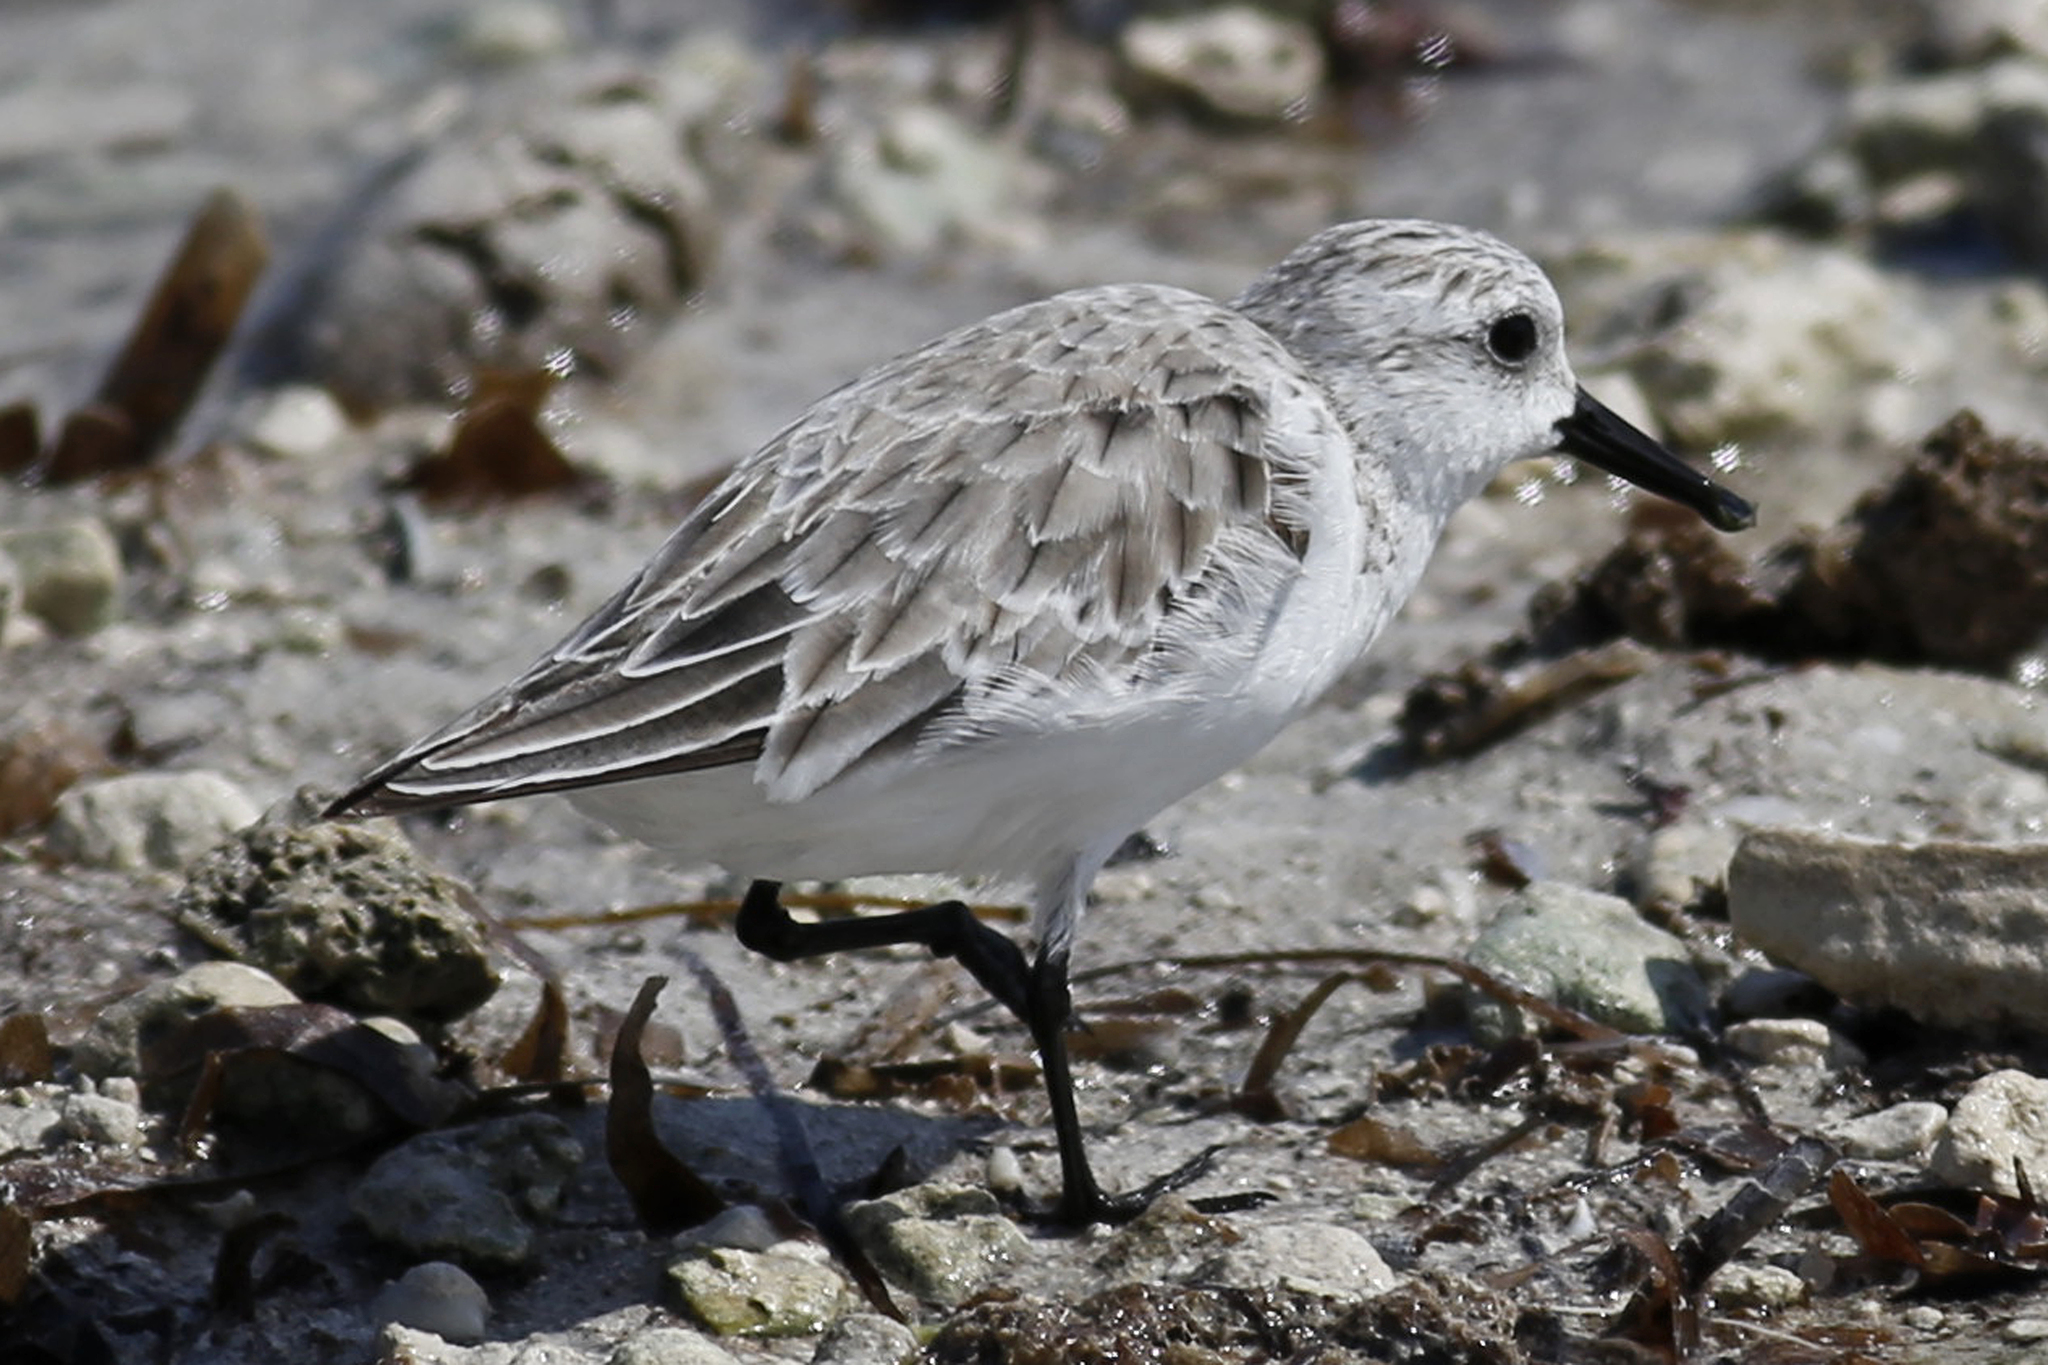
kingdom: Animalia
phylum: Chordata
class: Aves
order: Charadriiformes
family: Scolopacidae
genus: Calidris
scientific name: Calidris alba
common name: Sanderling
